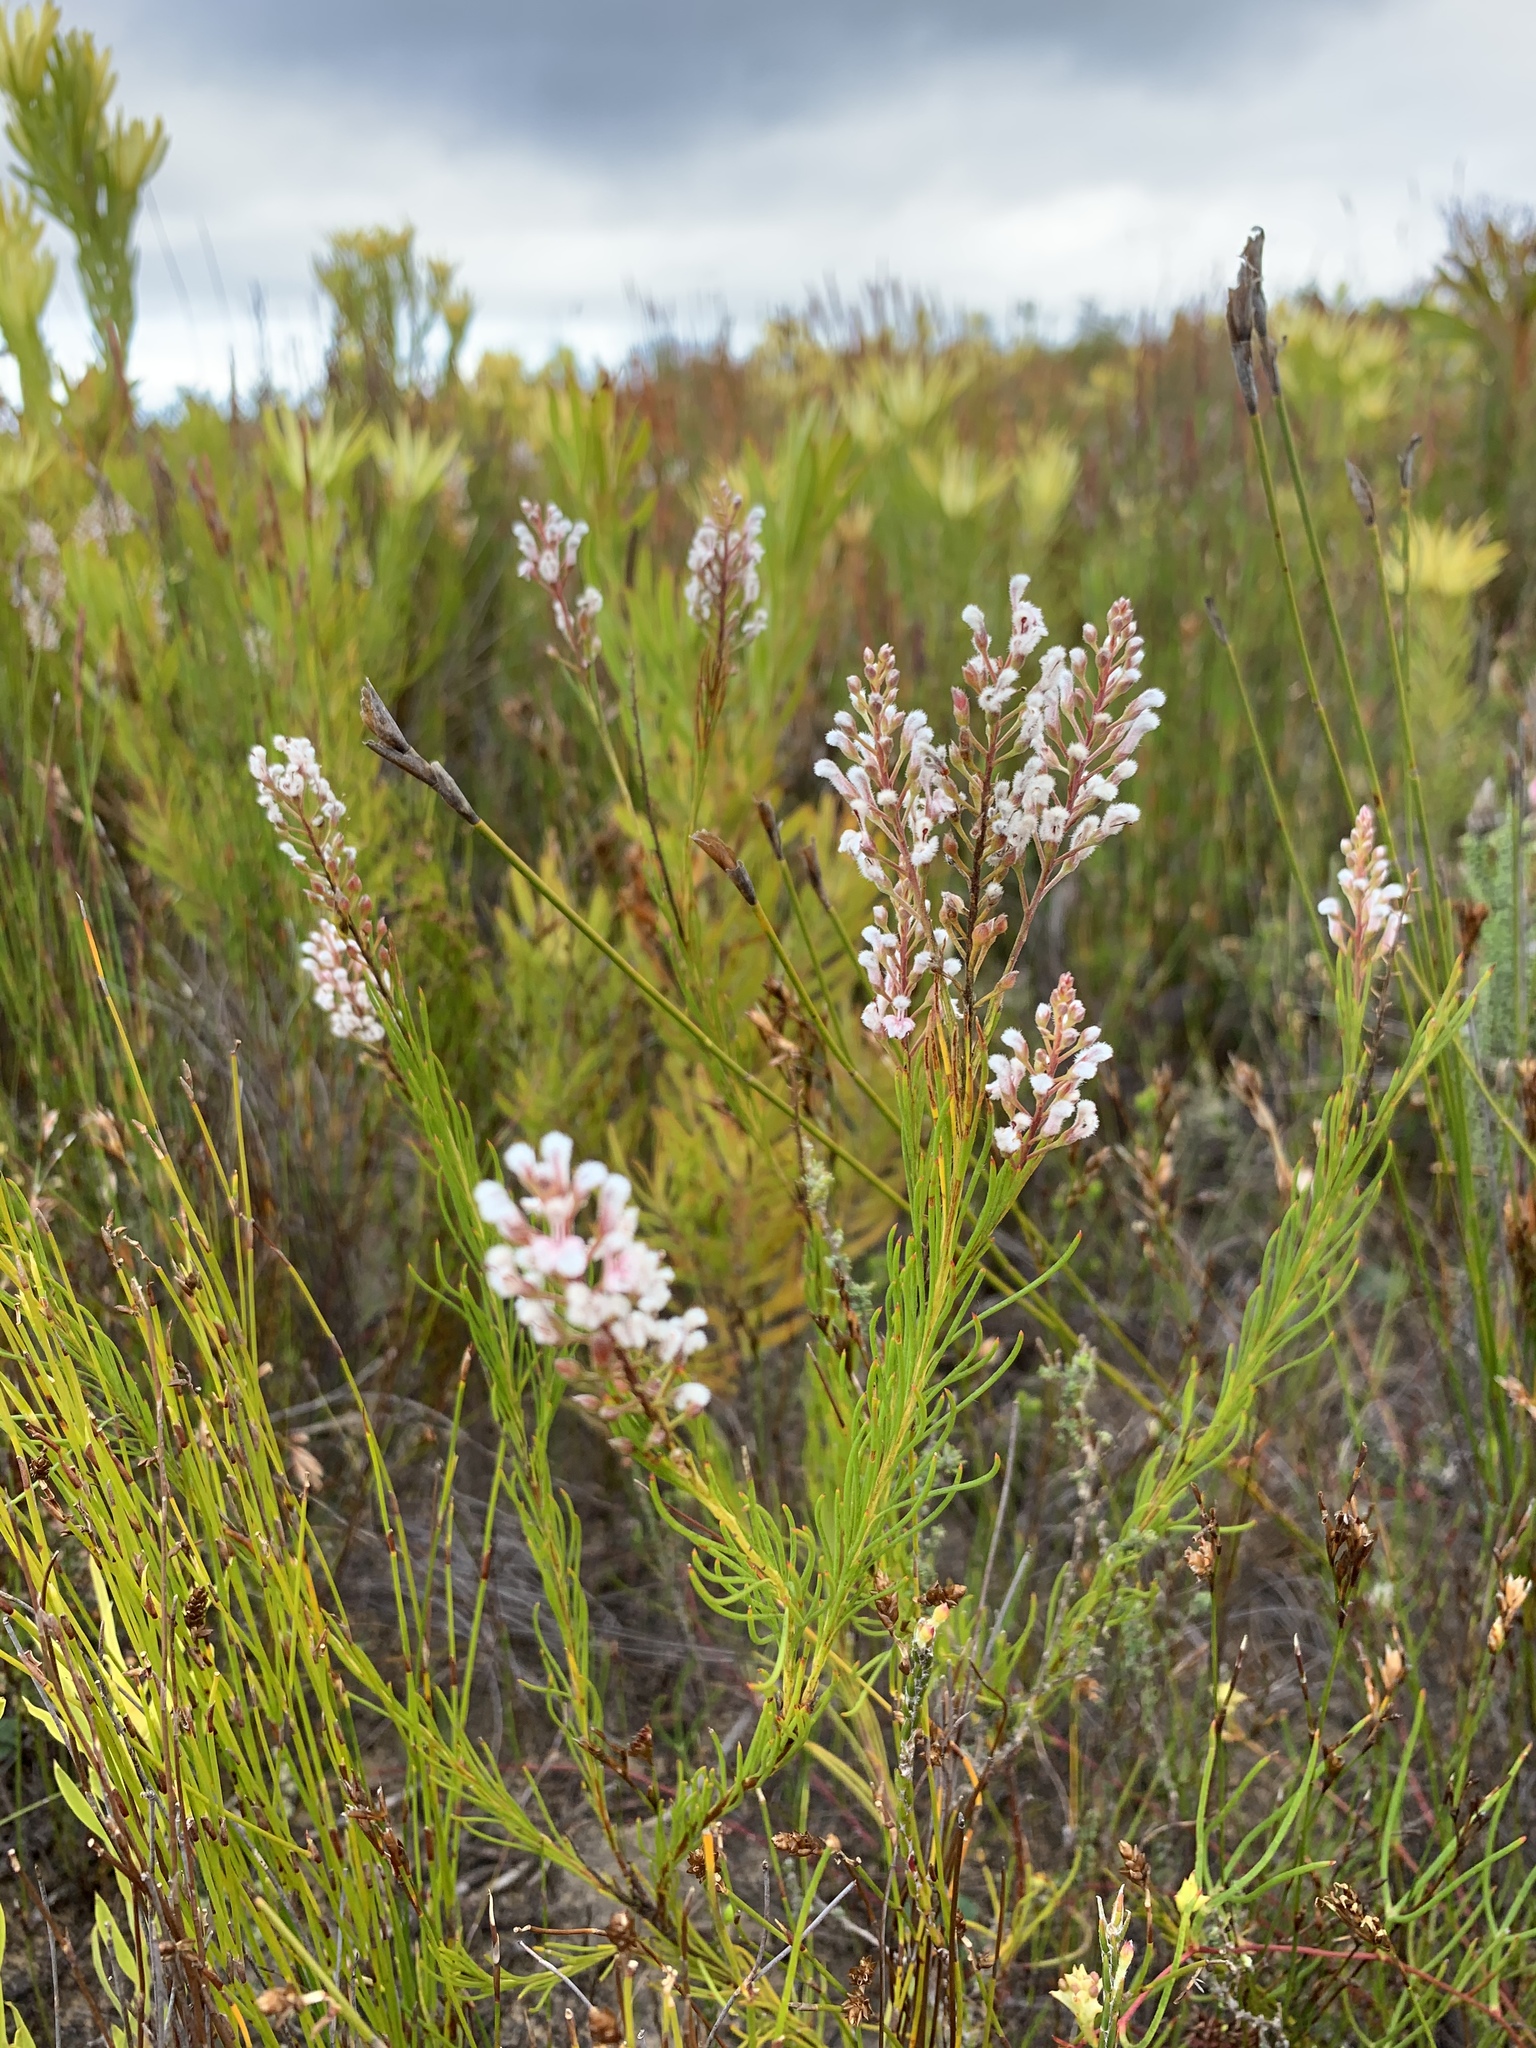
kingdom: Plantae
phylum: Tracheophyta
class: Magnoliopsida
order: Proteales
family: Proteaceae
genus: Spatalla
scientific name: Spatalla racemosa
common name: Lax-stalked spoon
